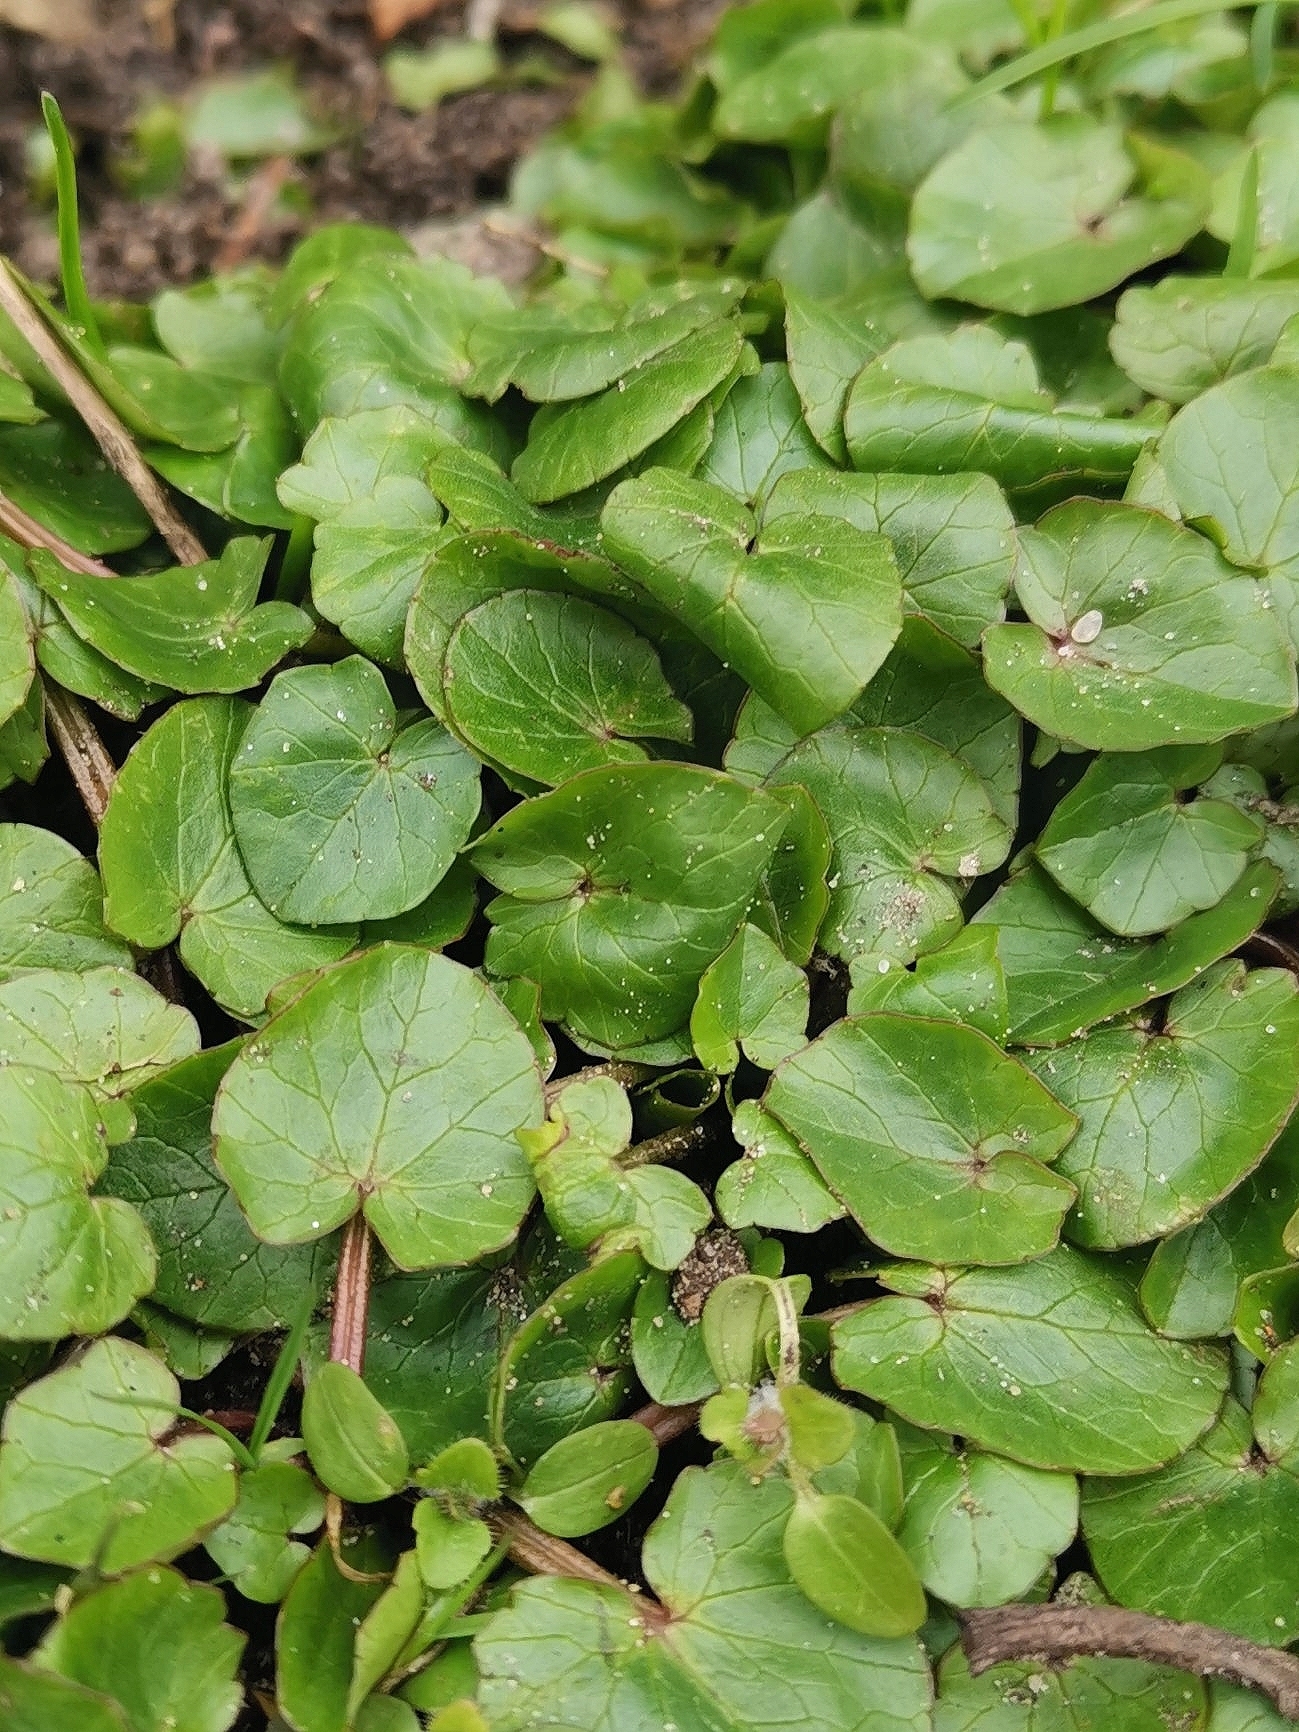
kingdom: Plantae
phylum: Tracheophyta
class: Magnoliopsida
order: Ranunculales
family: Ranunculaceae
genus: Ficaria
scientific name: Ficaria verna
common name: Lesser celandine
